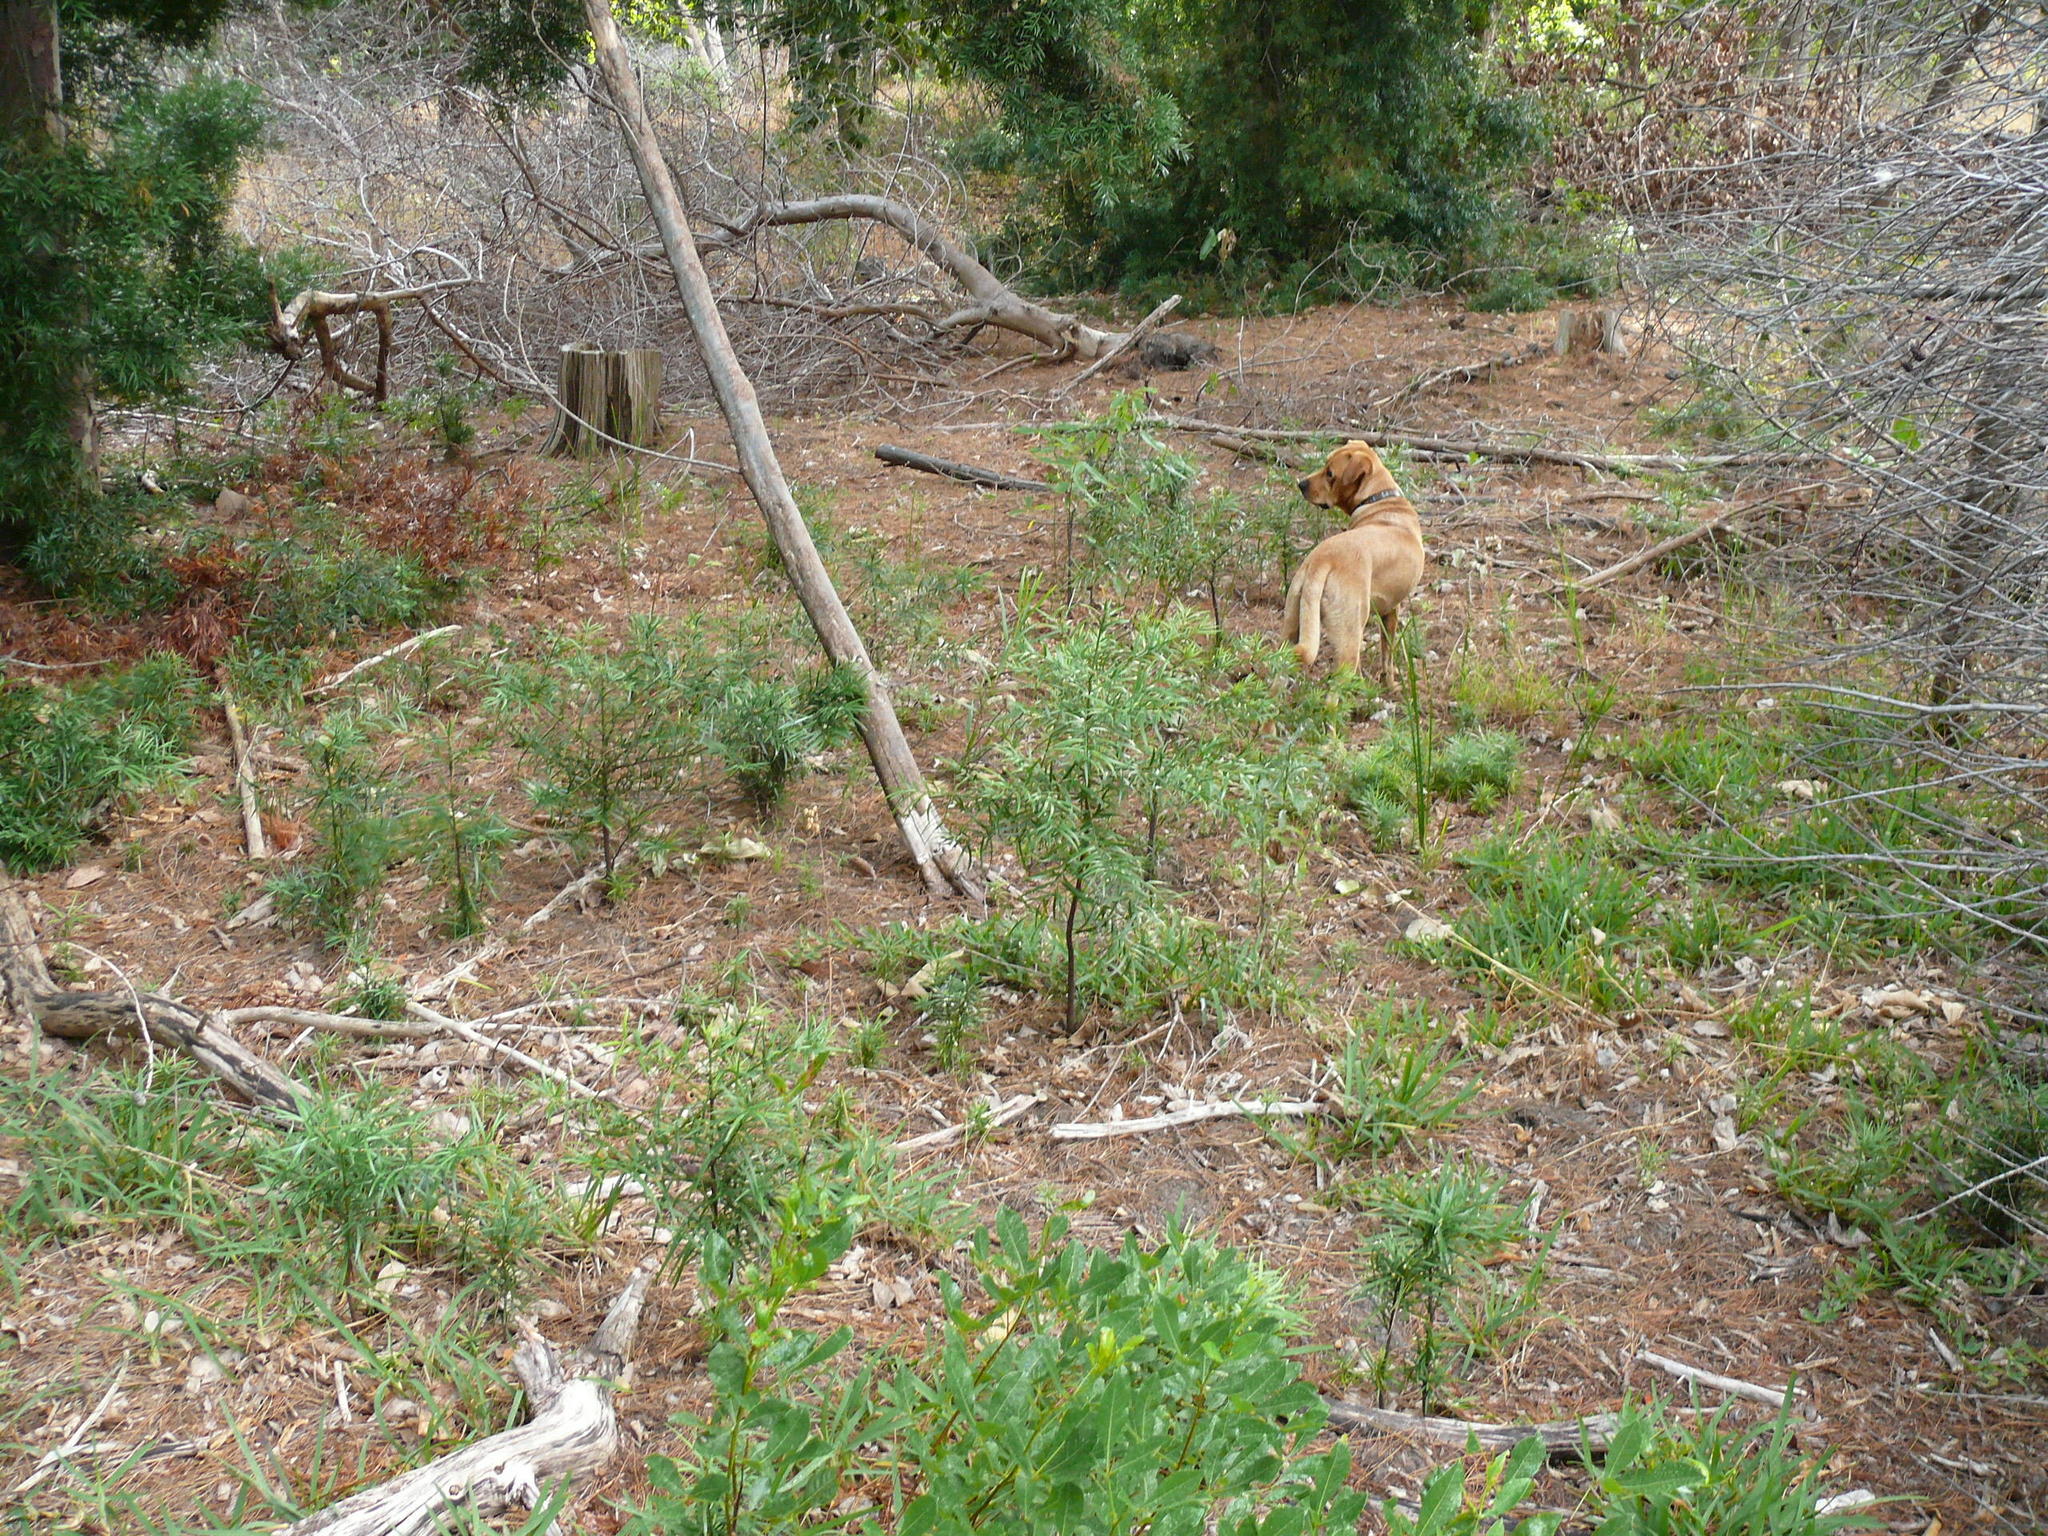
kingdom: Plantae
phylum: Tracheophyta
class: Pinopsida
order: Pinales
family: Podocarpaceae
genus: Afrocarpus
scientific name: Afrocarpus falcatus
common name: Bastard yellowwood
